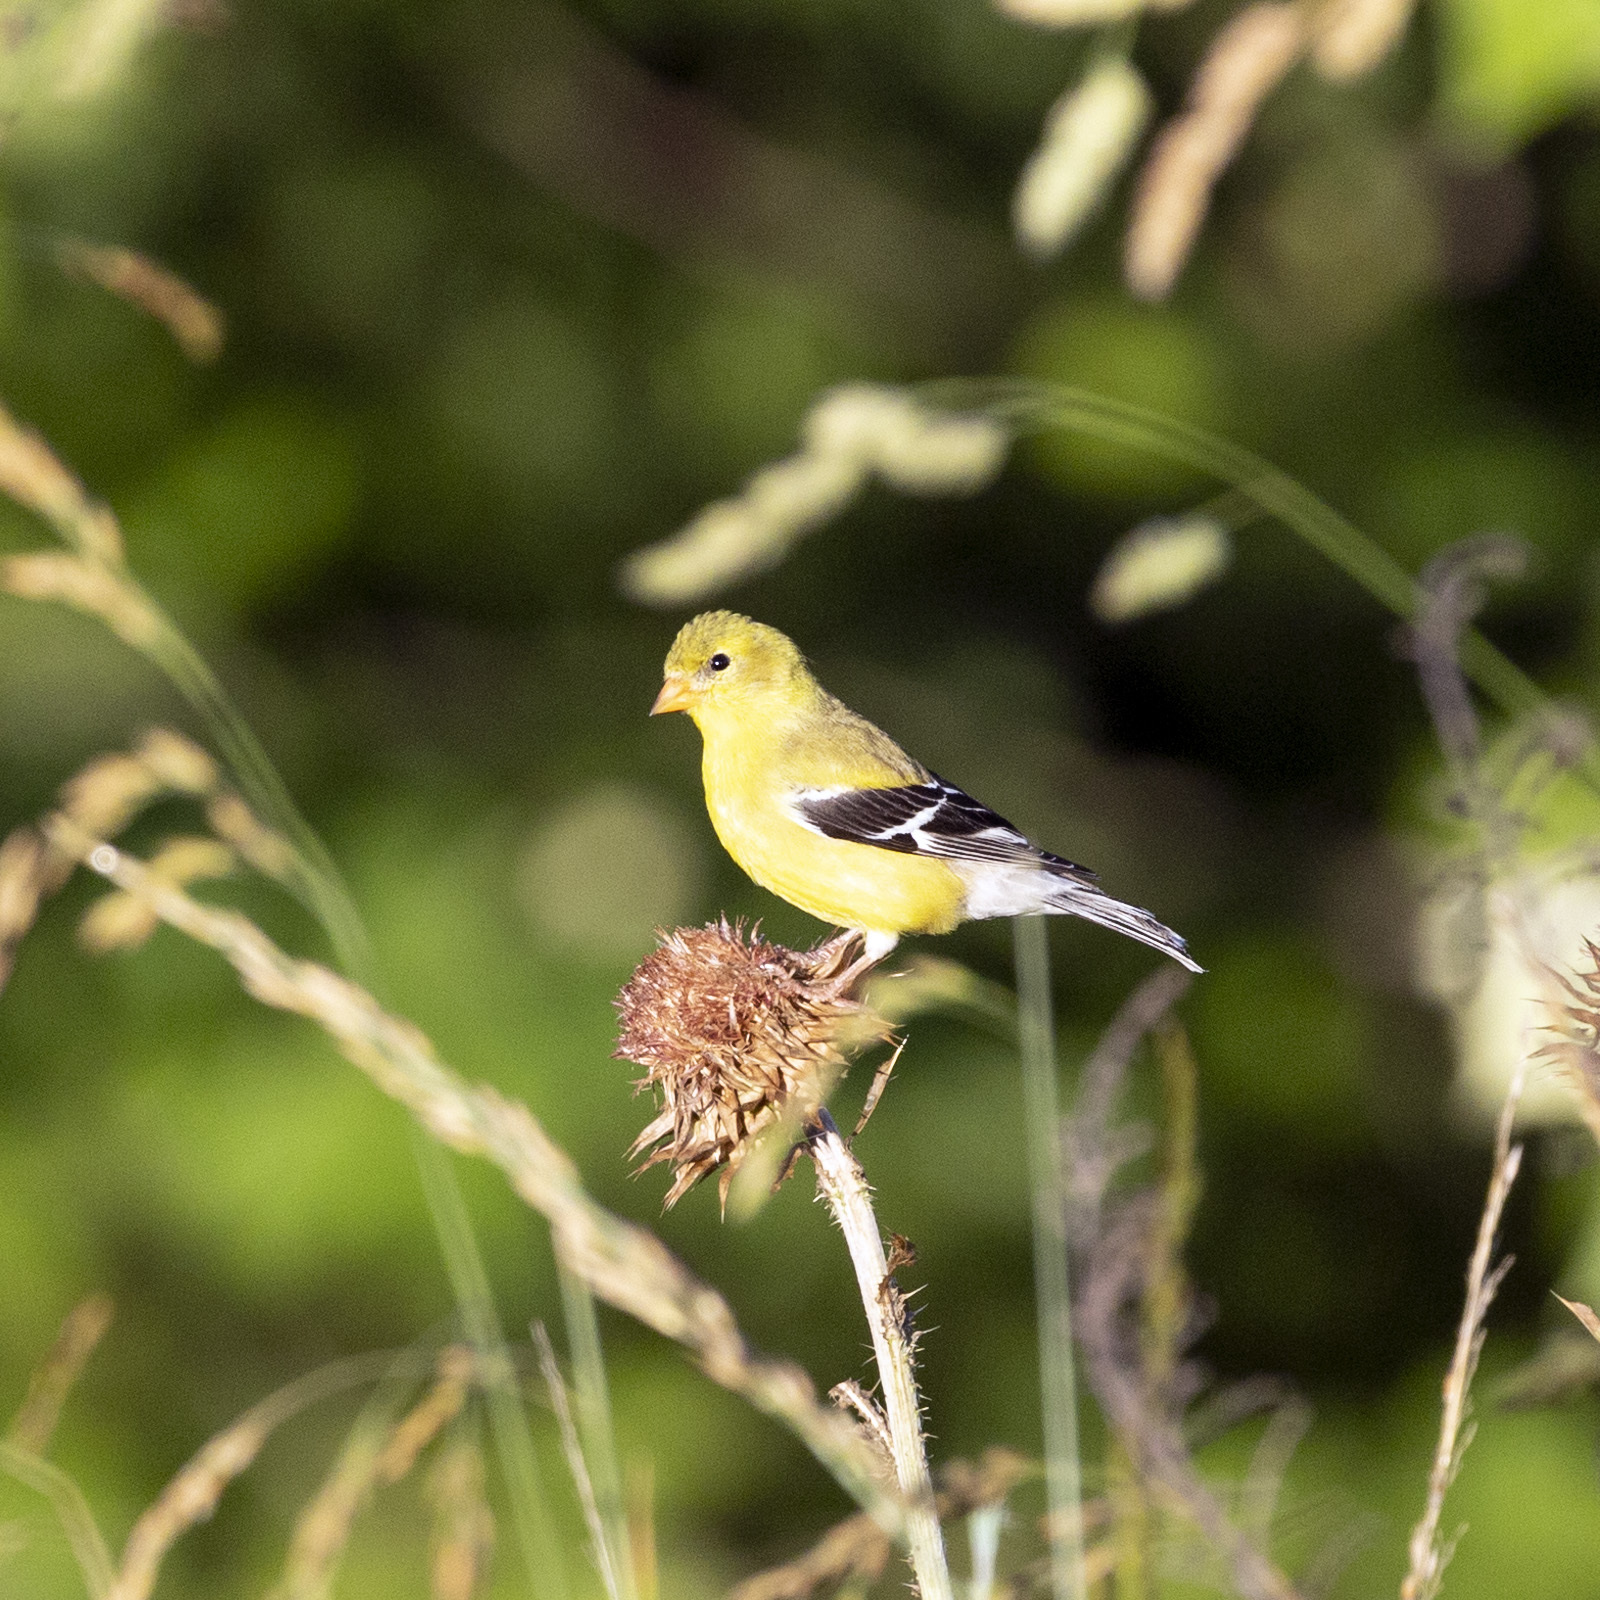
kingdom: Animalia
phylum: Chordata
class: Aves
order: Passeriformes
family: Fringillidae
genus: Spinus
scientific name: Spinus tristis
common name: American goldfinch
